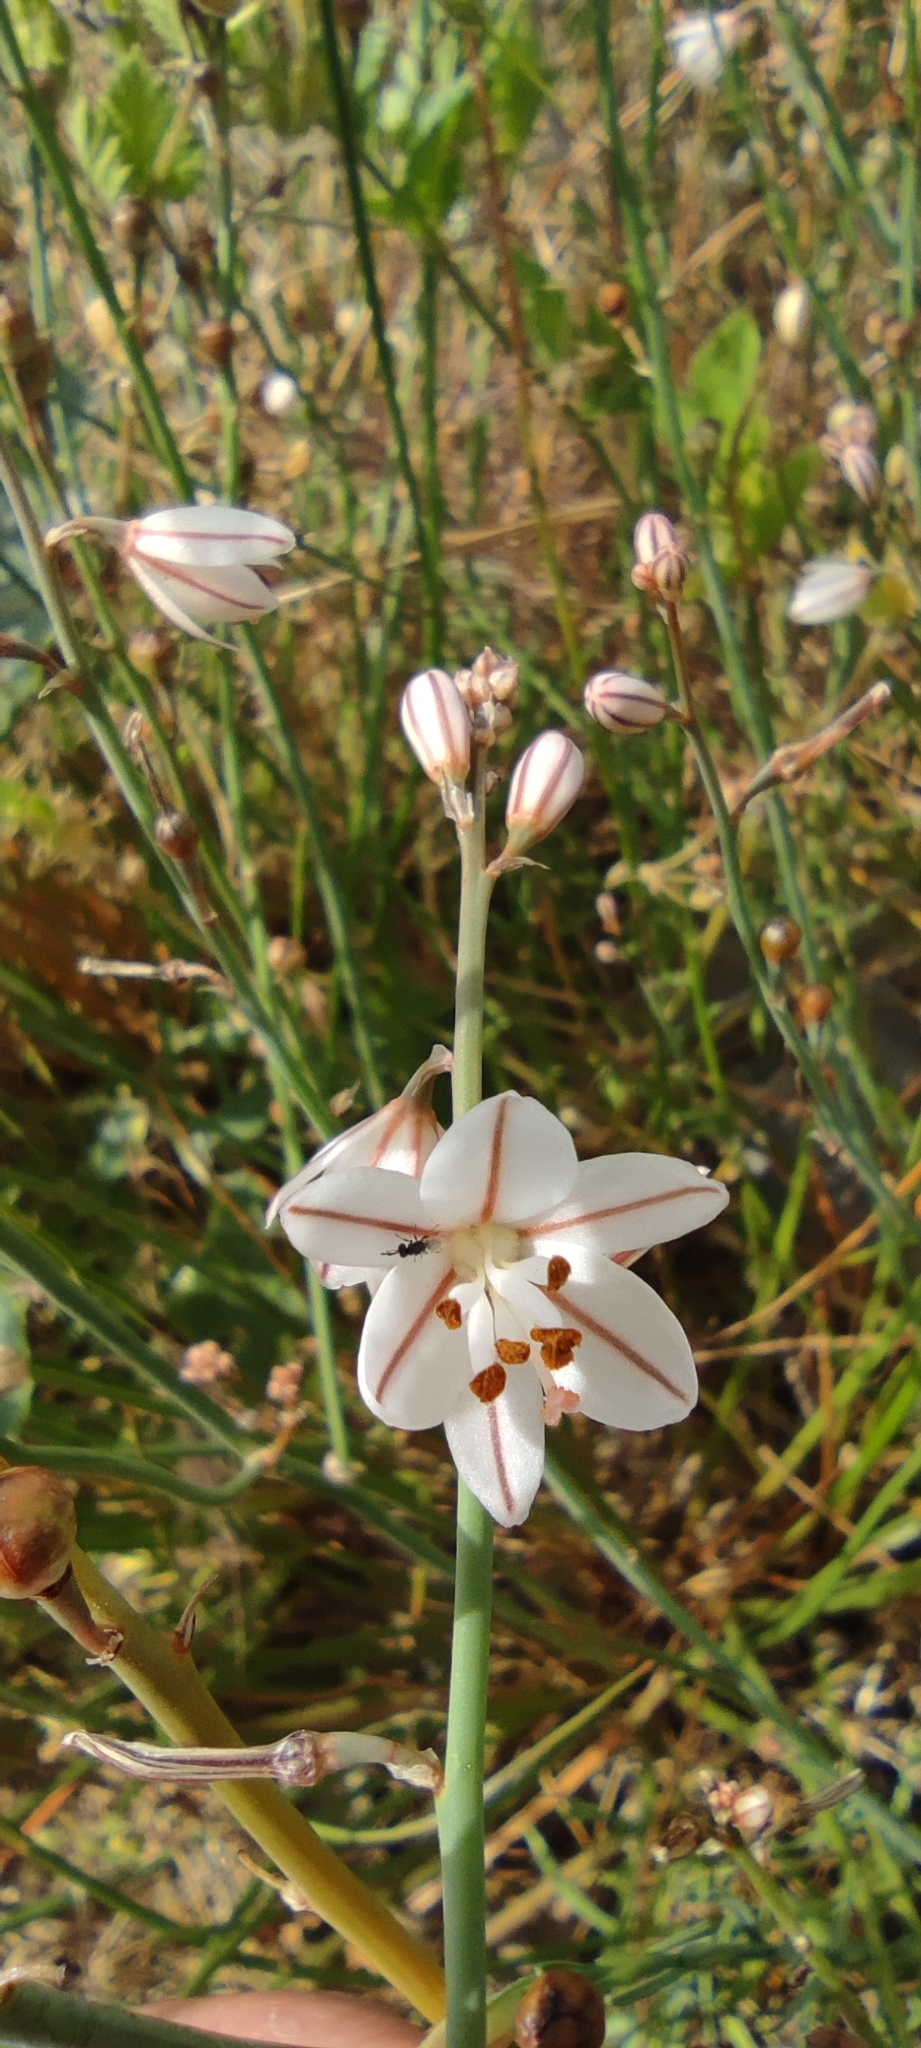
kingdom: Plantae
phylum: Tracheophyta
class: Liliopsida
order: Asparagales
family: Asphodelaceae
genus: Asphodelus
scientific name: Asphodelus fistulosus
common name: Onionweed
